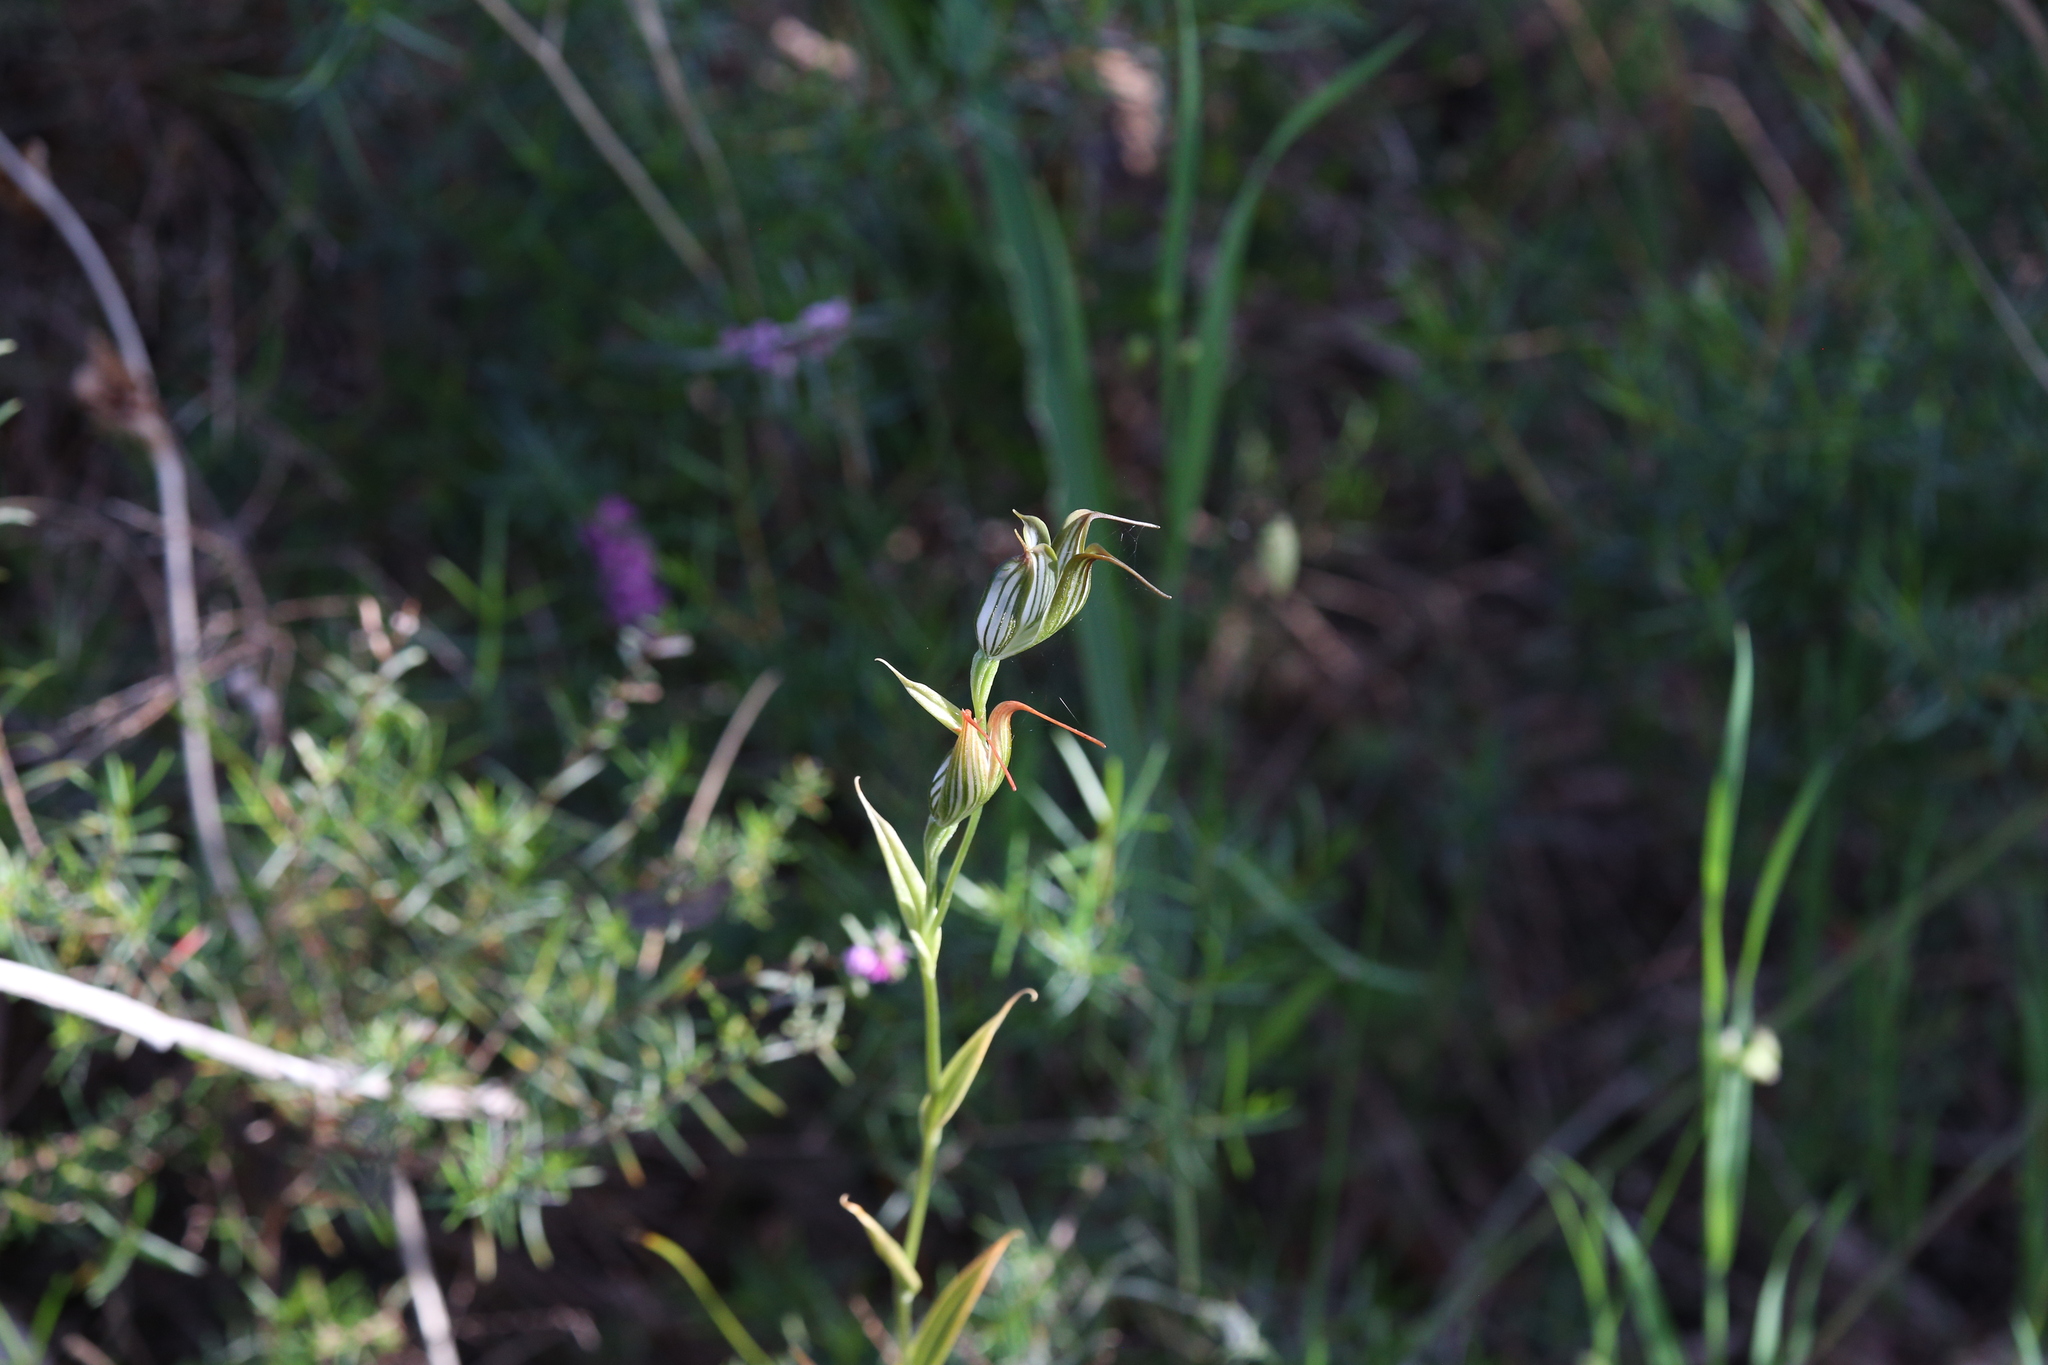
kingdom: Plantae
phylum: Tracheophyta
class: Liliopsida
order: Asparagales
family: Orchidaceae
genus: Pterostylis
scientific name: Pterostylis recurva
